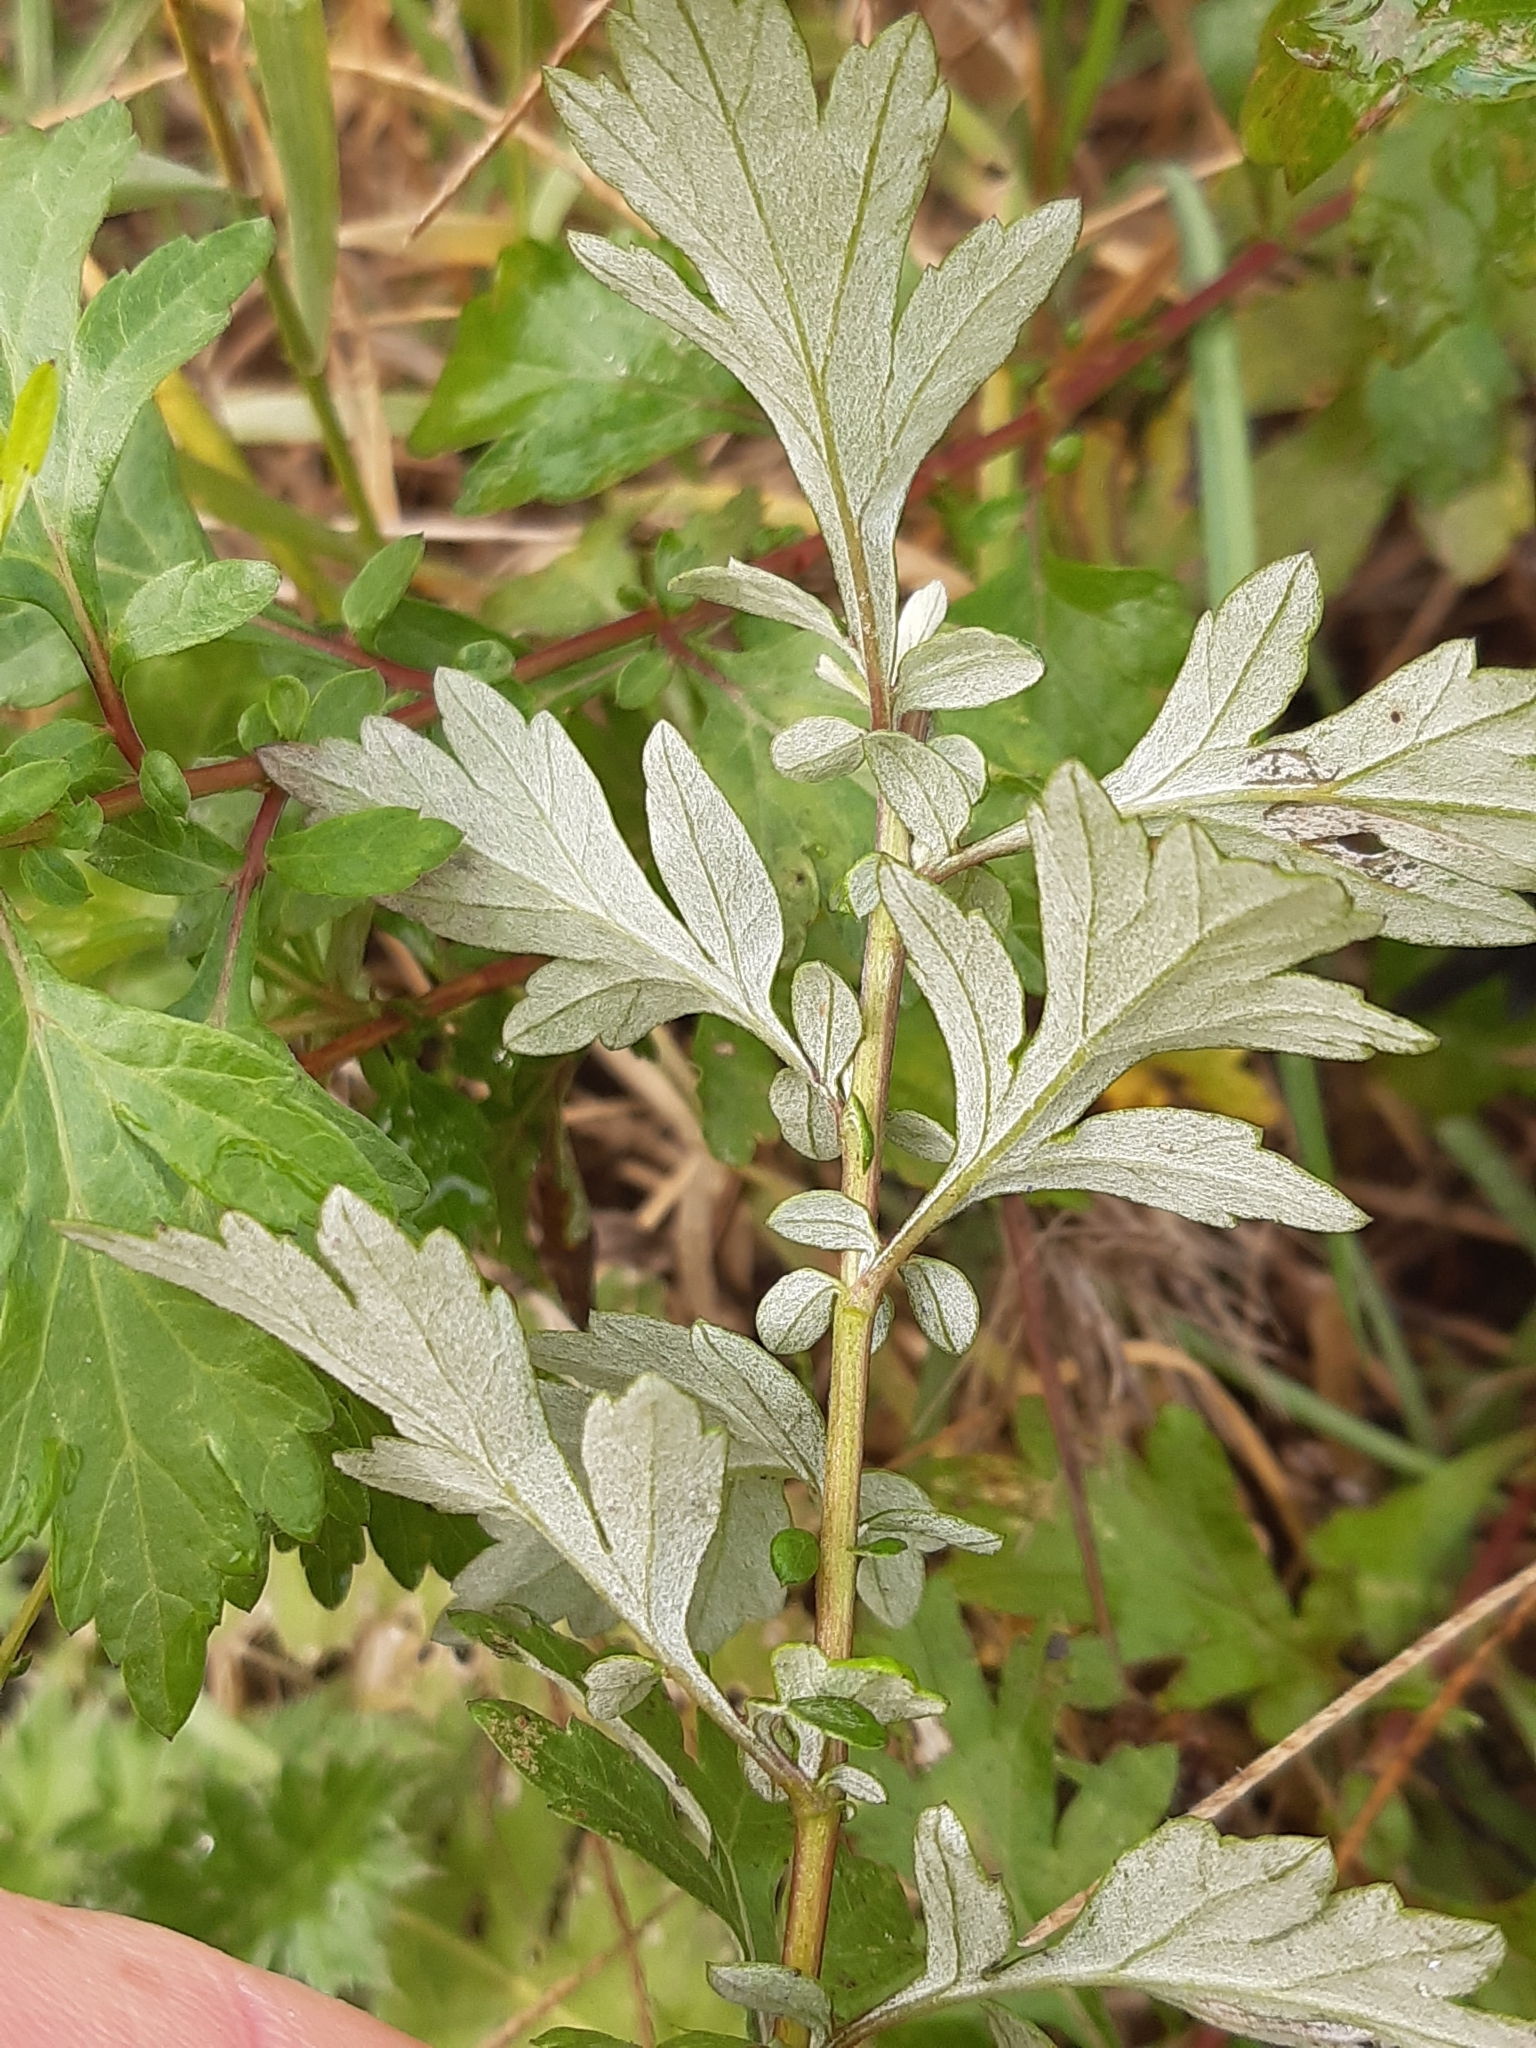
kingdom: Plantae
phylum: Tracheophyta
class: Magnoliopsida
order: Asterales
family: Asteraceae
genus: Artemisia
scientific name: Artemisia vulgaris
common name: Mugwort
